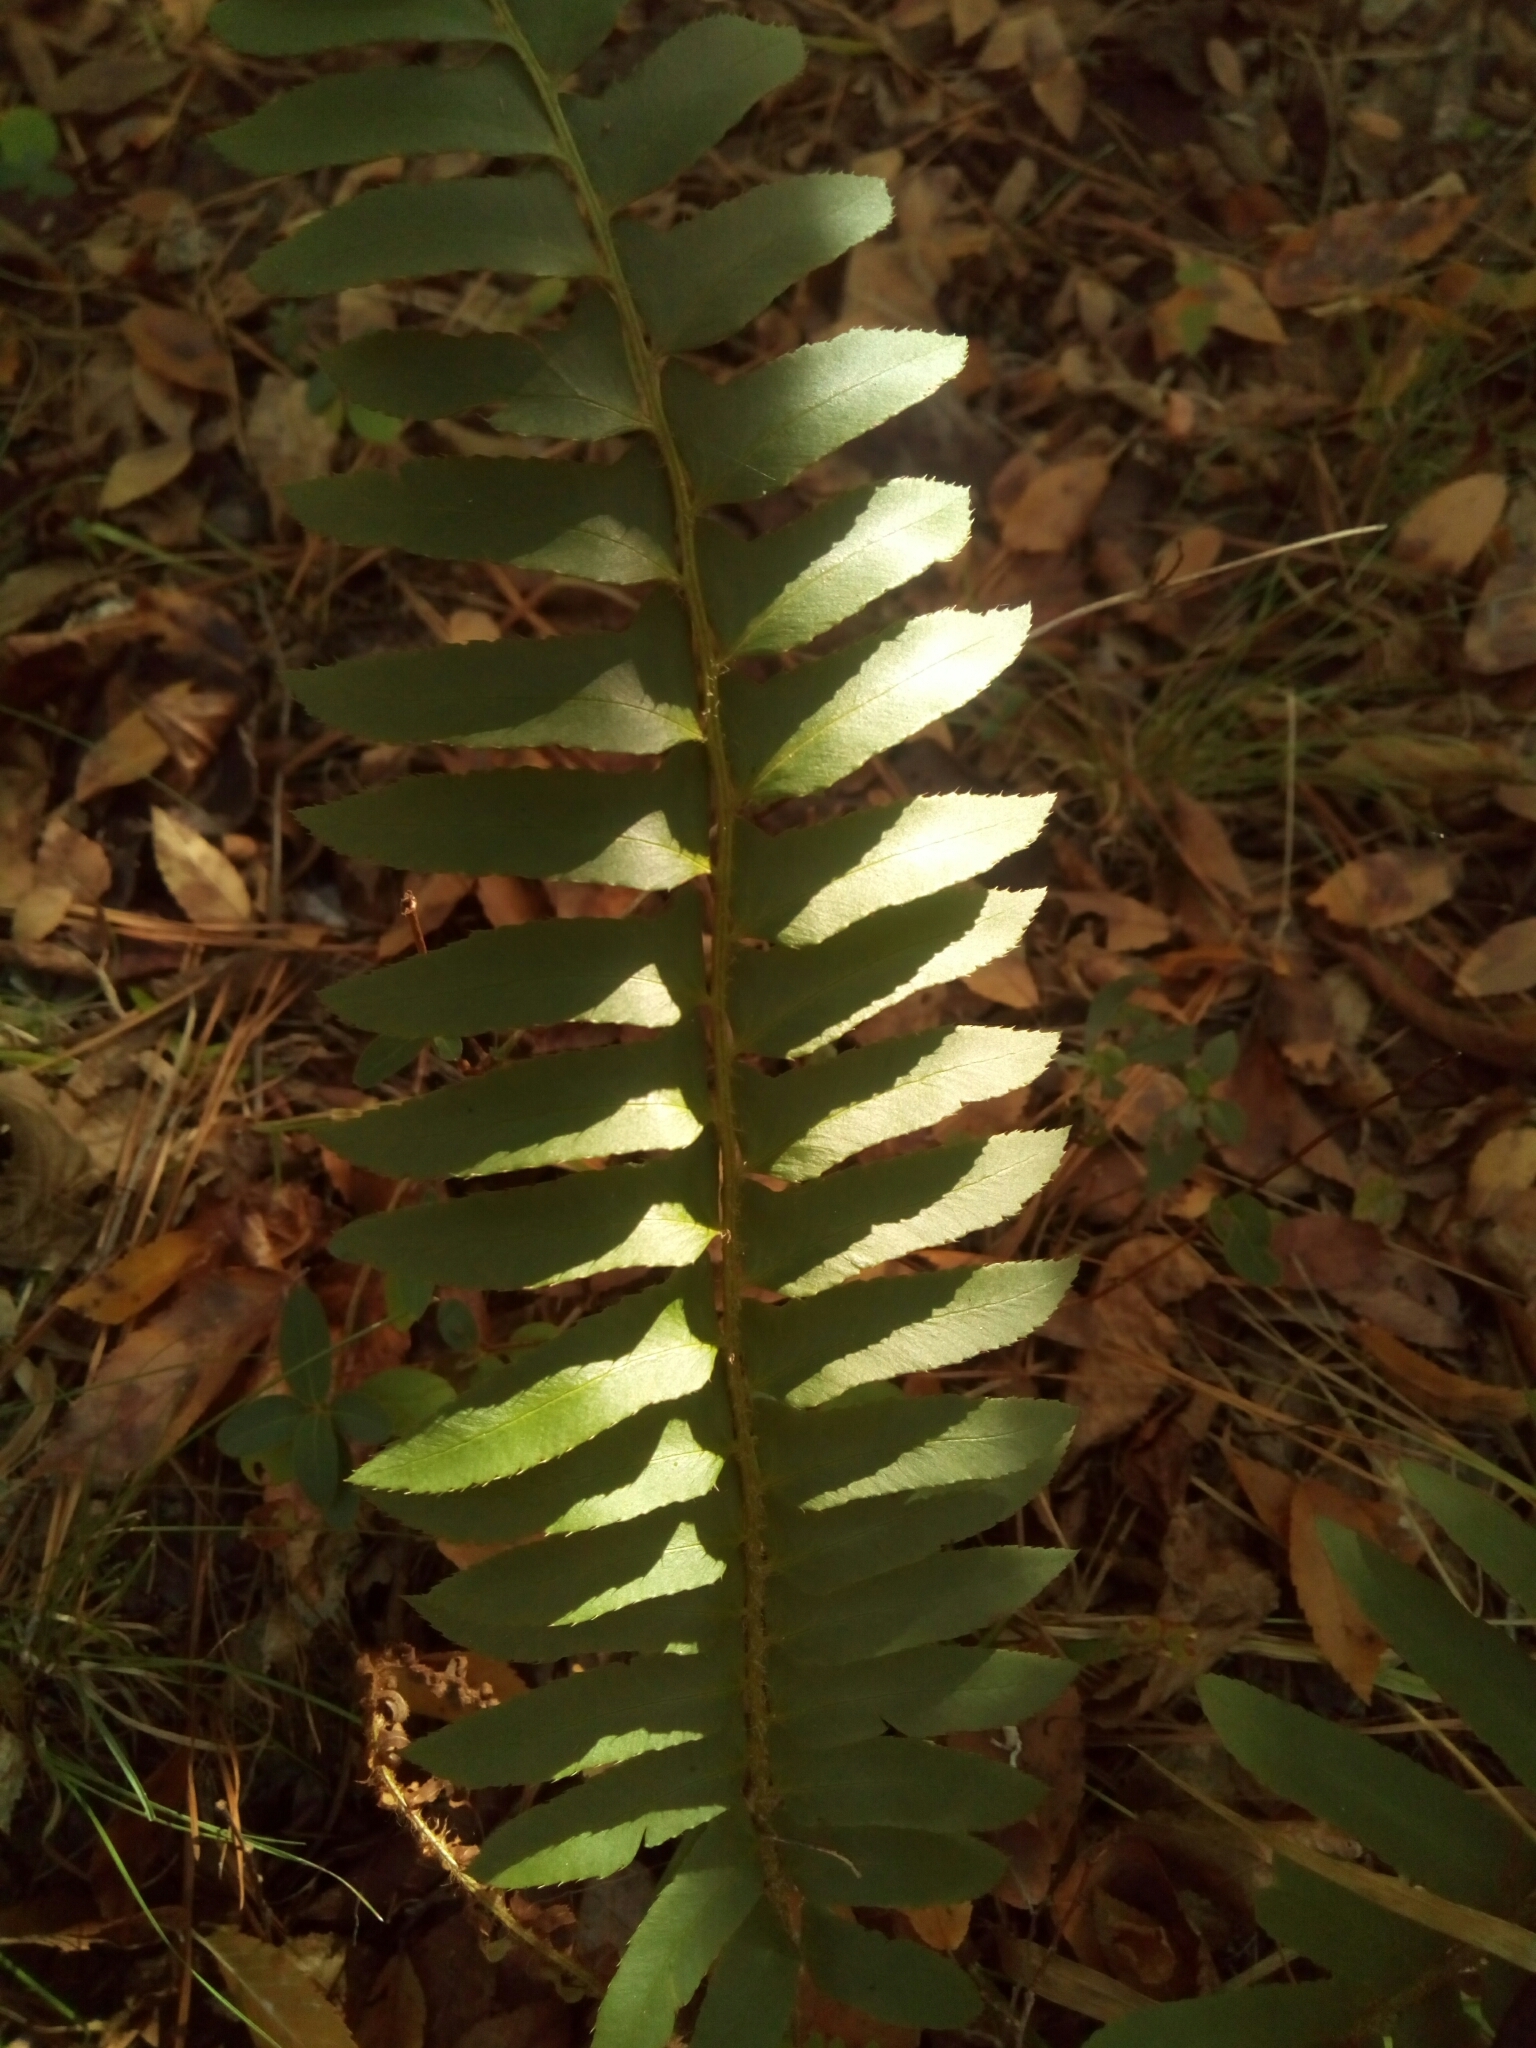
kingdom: Plantae
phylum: Tracheophyta
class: Polypodiopsida
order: Polypodiales
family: Dryopteridaceae
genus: Polystichum
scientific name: Polystichum acrostichoides
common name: Christmas fern
